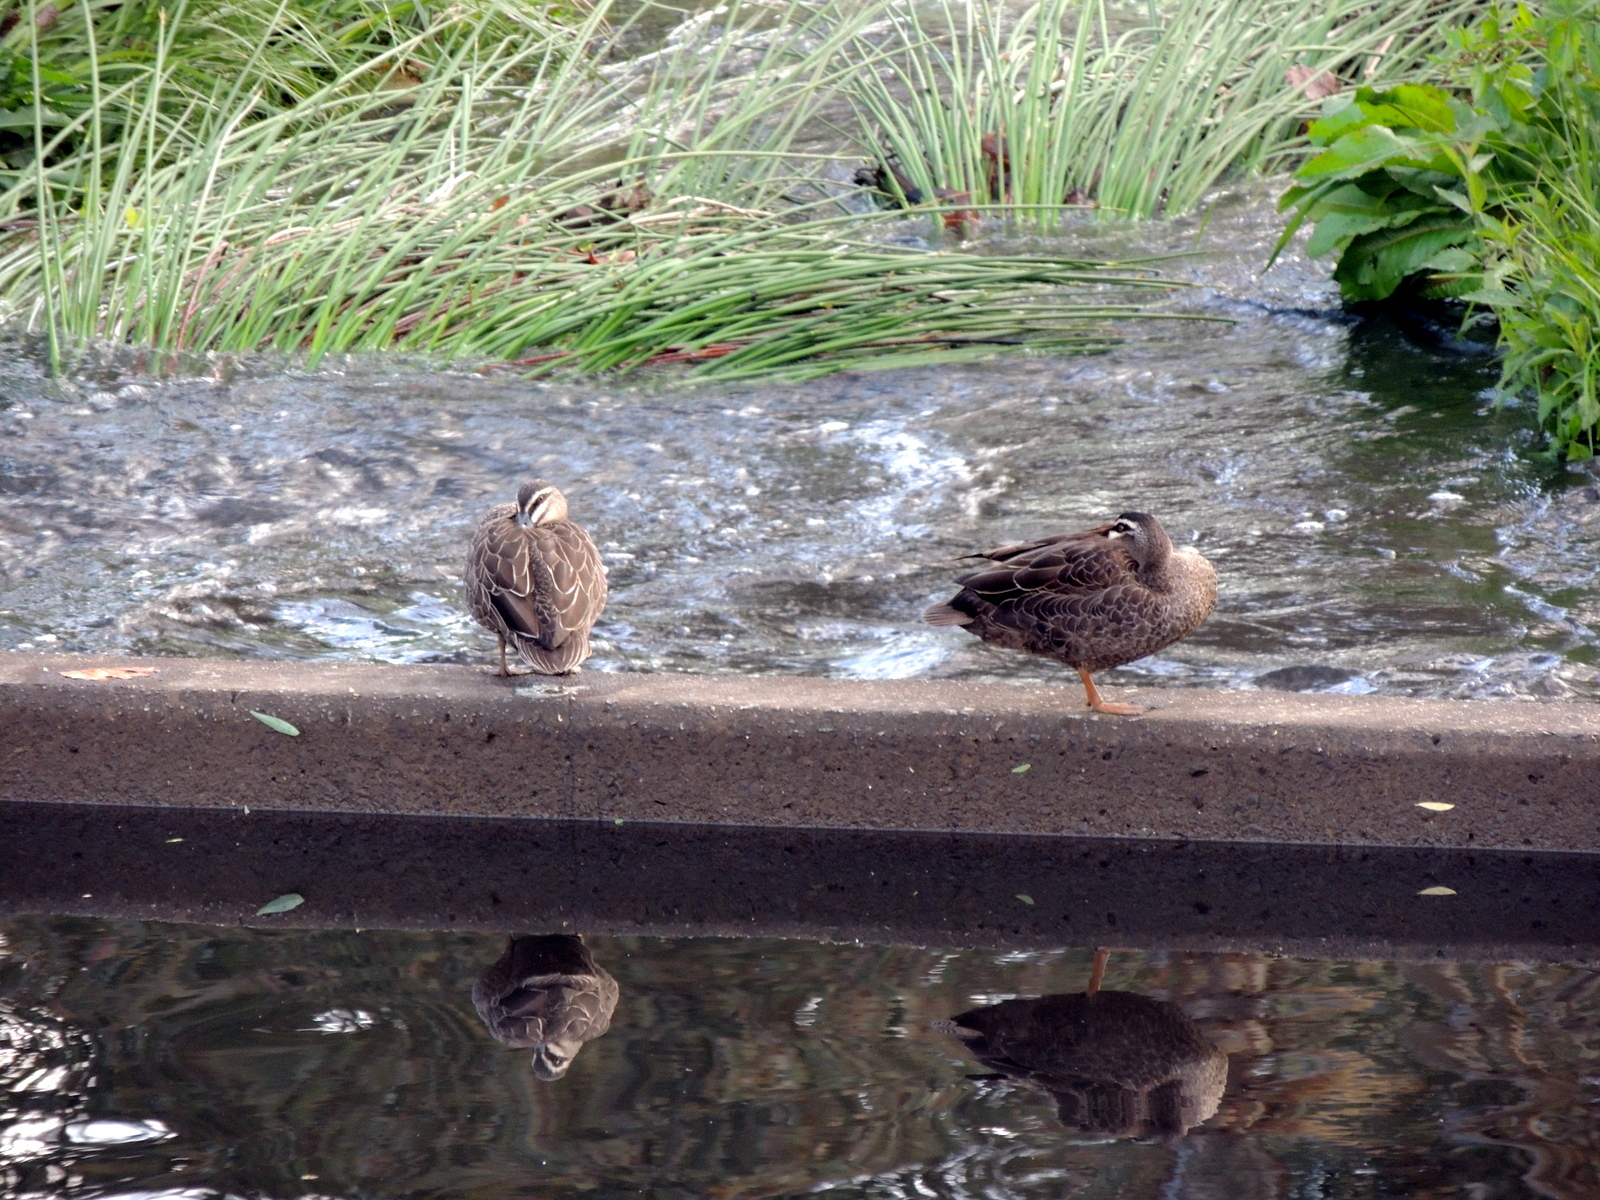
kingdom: Animalia
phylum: Chordata
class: Aves
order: Anseriformes
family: Anatidae
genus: Anas
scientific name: Anas superciliosa
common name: Pacific black duck
